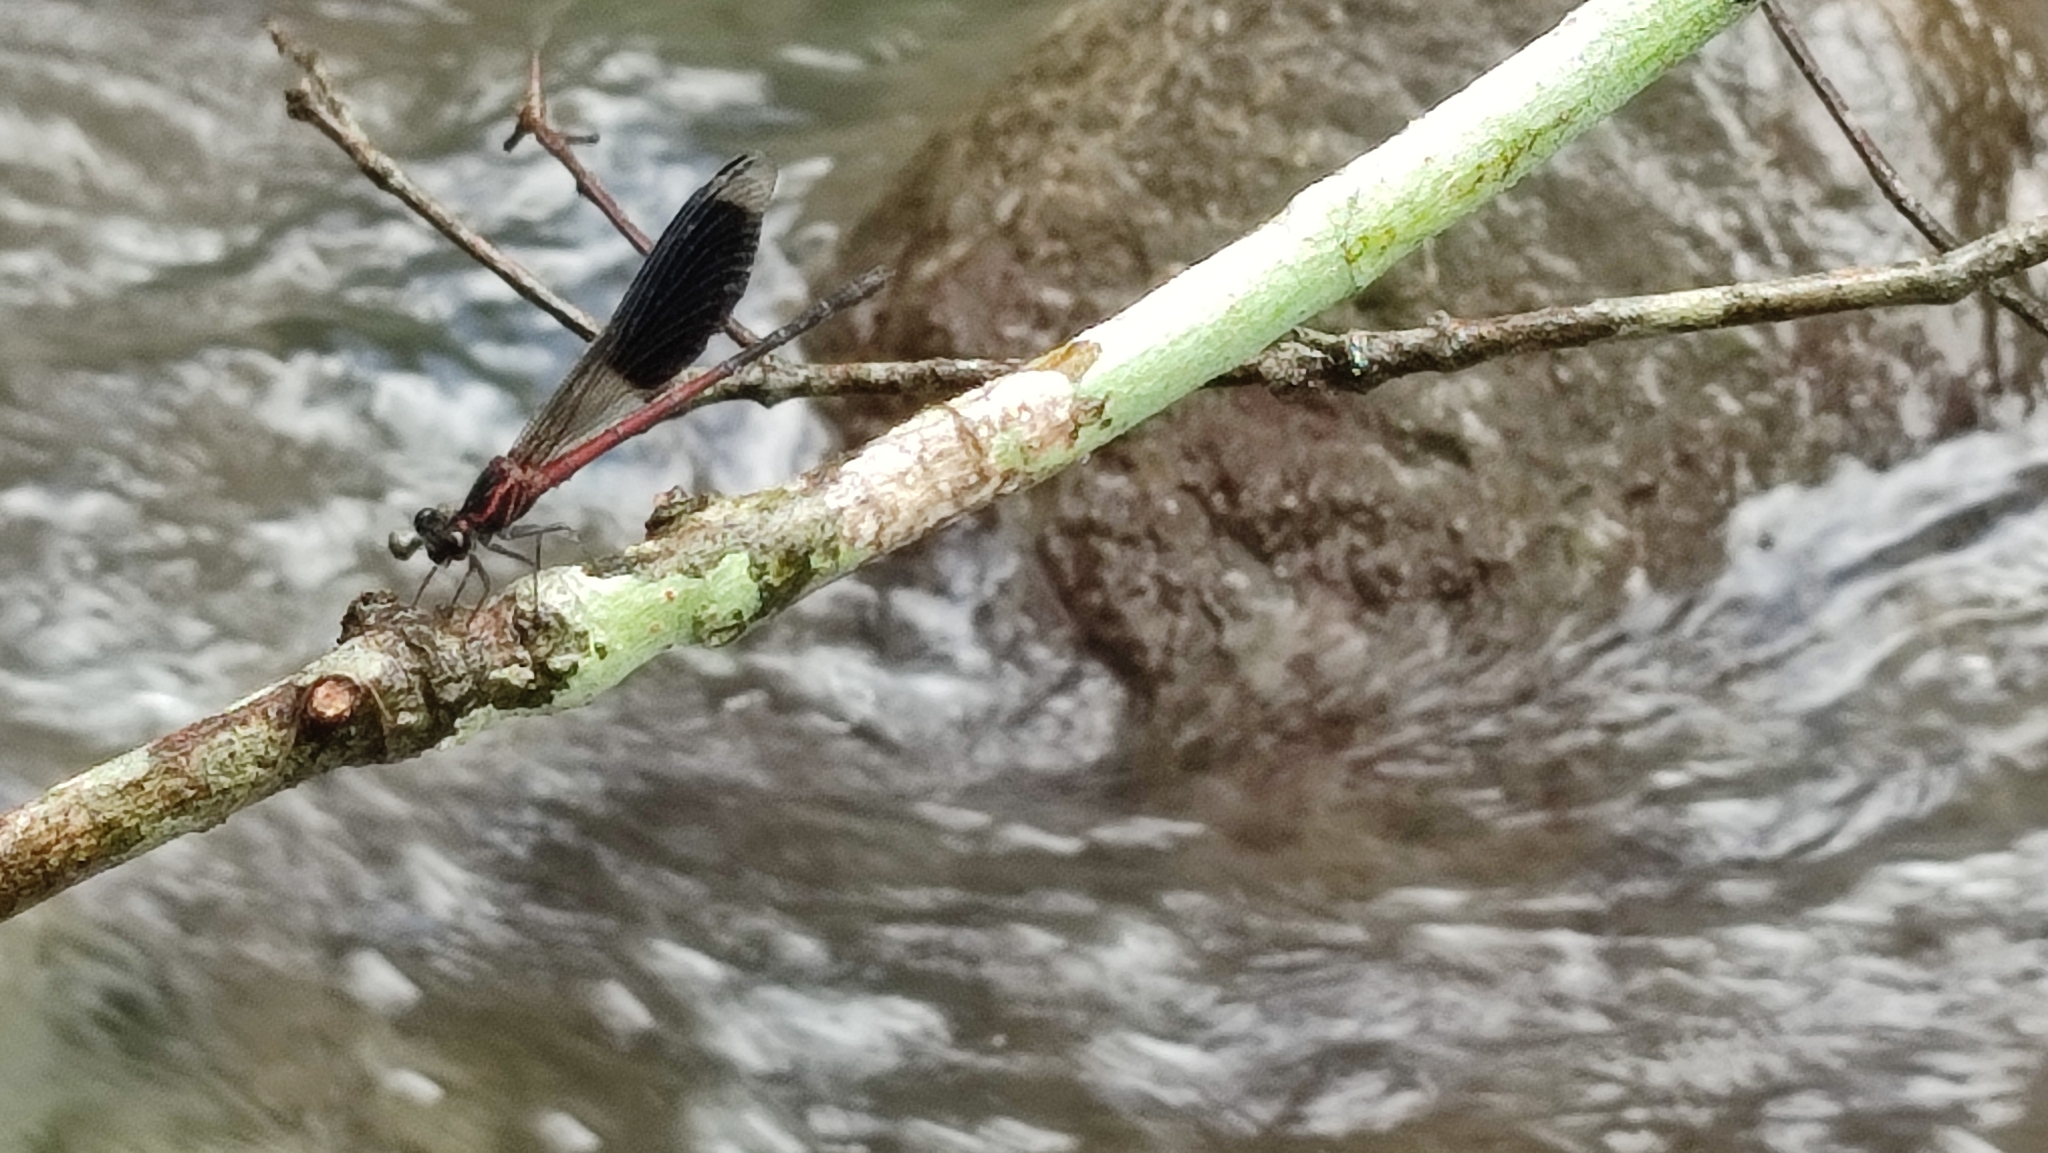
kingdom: Animalia
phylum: Arthropoda
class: Insecta
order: Odonata
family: Euphaeidae
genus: Euphaea
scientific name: Euphaea formosa
